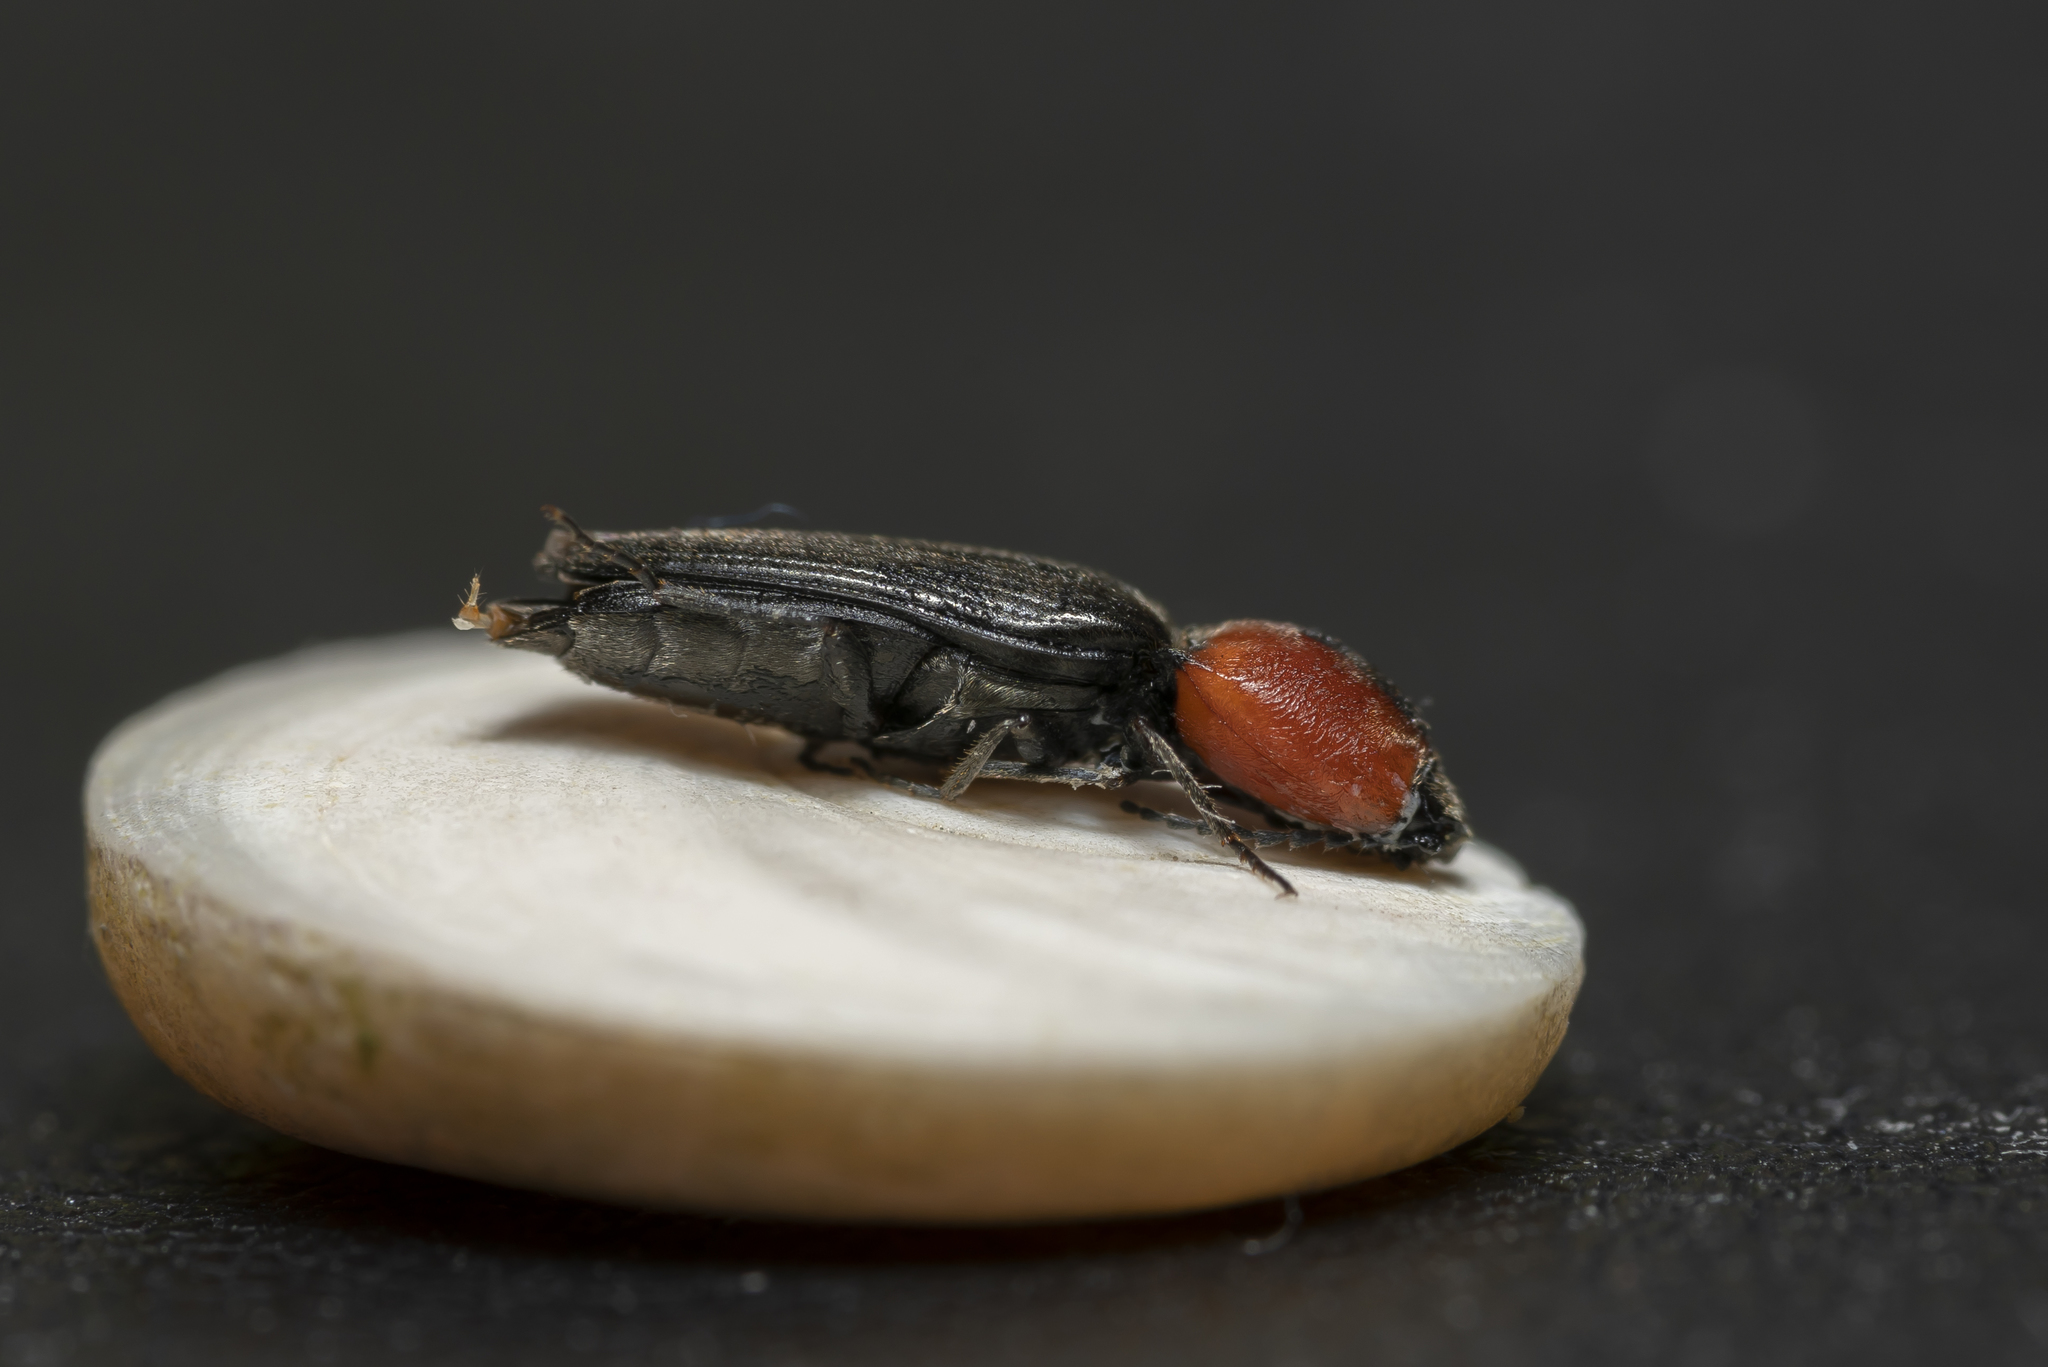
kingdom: Animalia
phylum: Arthropoda
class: Insecta
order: Coleoptera
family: Elateridae
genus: Cardiophorus
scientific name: Cardiophorus discicollis
